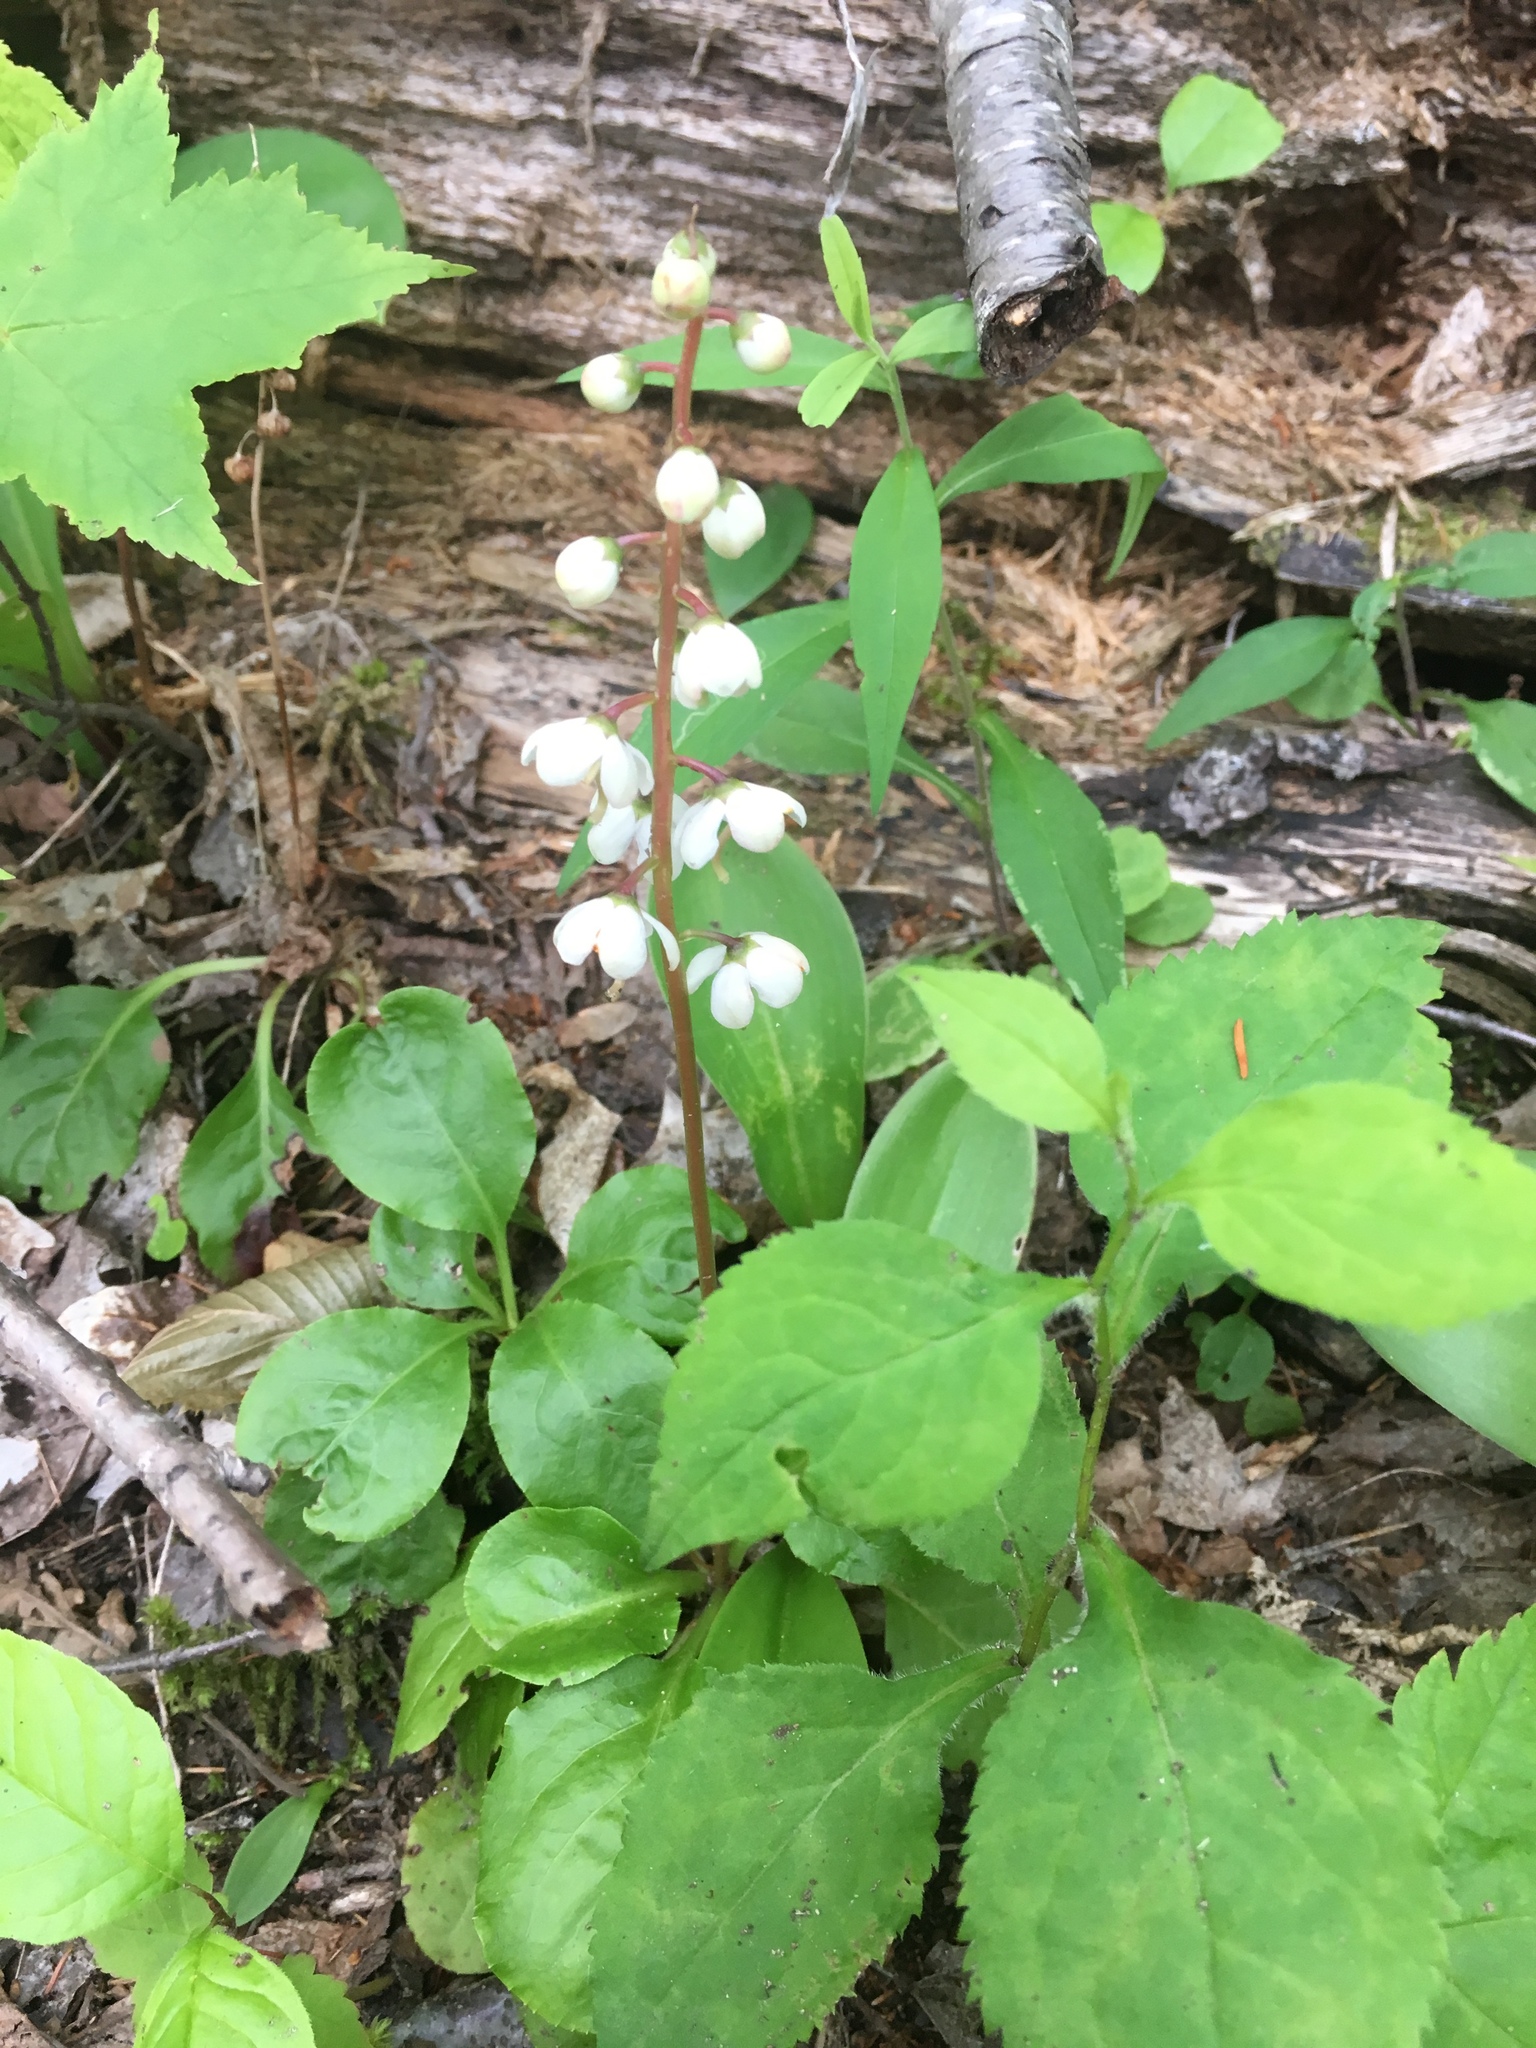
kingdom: Plantae
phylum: Tracheophyta
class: Magnoliopsida
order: Ericales
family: Ericaceae
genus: Pyrola
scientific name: Pyrola elliptica
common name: Shinleaf
